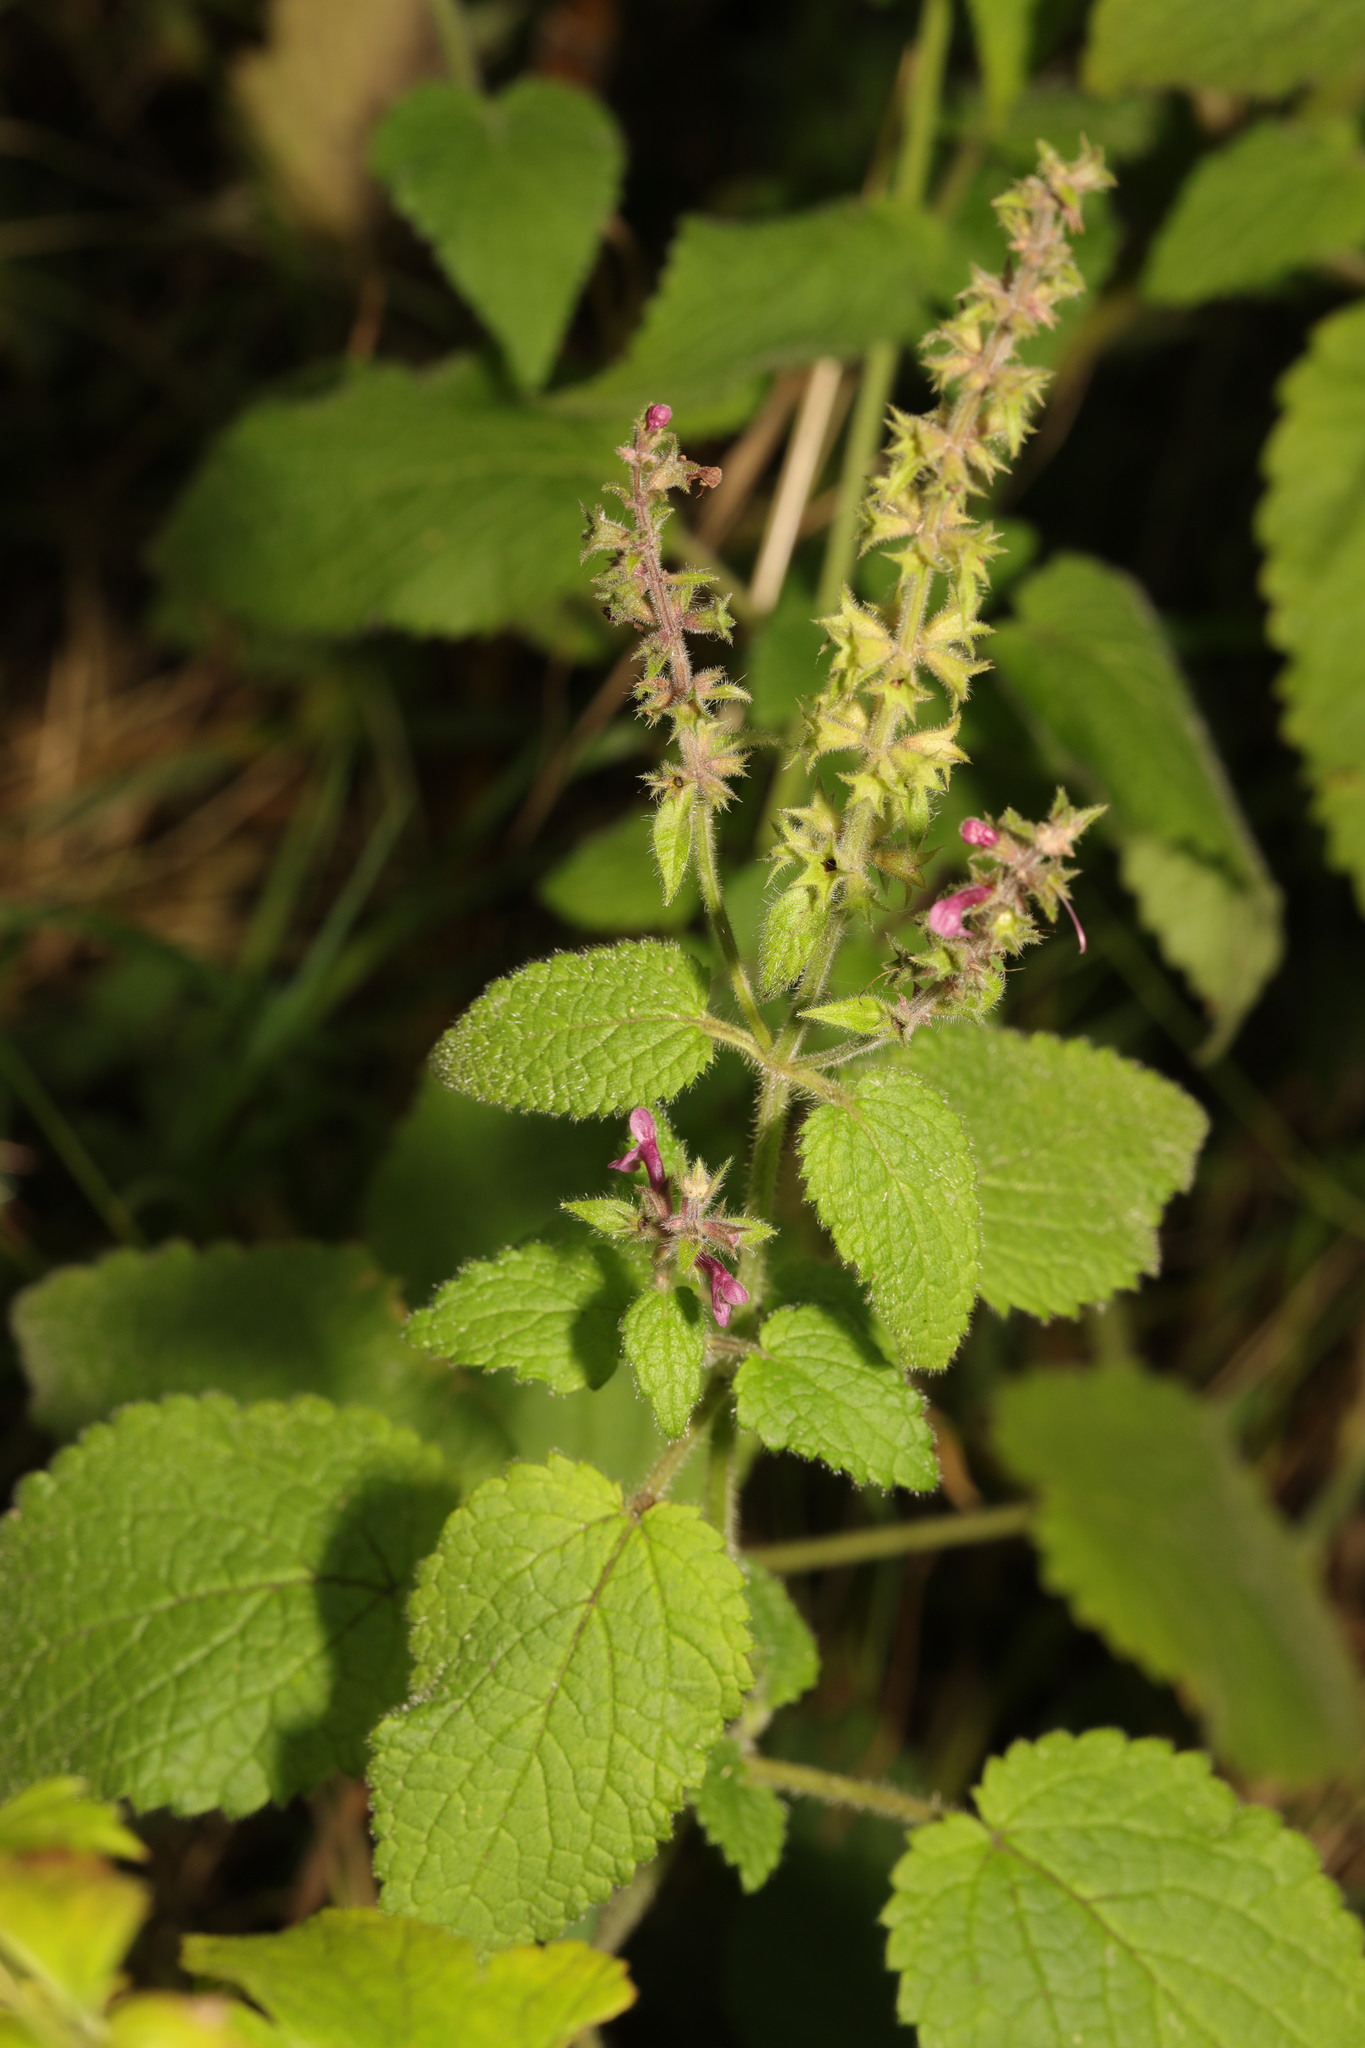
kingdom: Plantae
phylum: Tracheophyta
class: Magnoliopsida
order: Lamiales
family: Lamiaceae
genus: Stachys
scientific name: Stachys sylvatica
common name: Hedge woundwort
